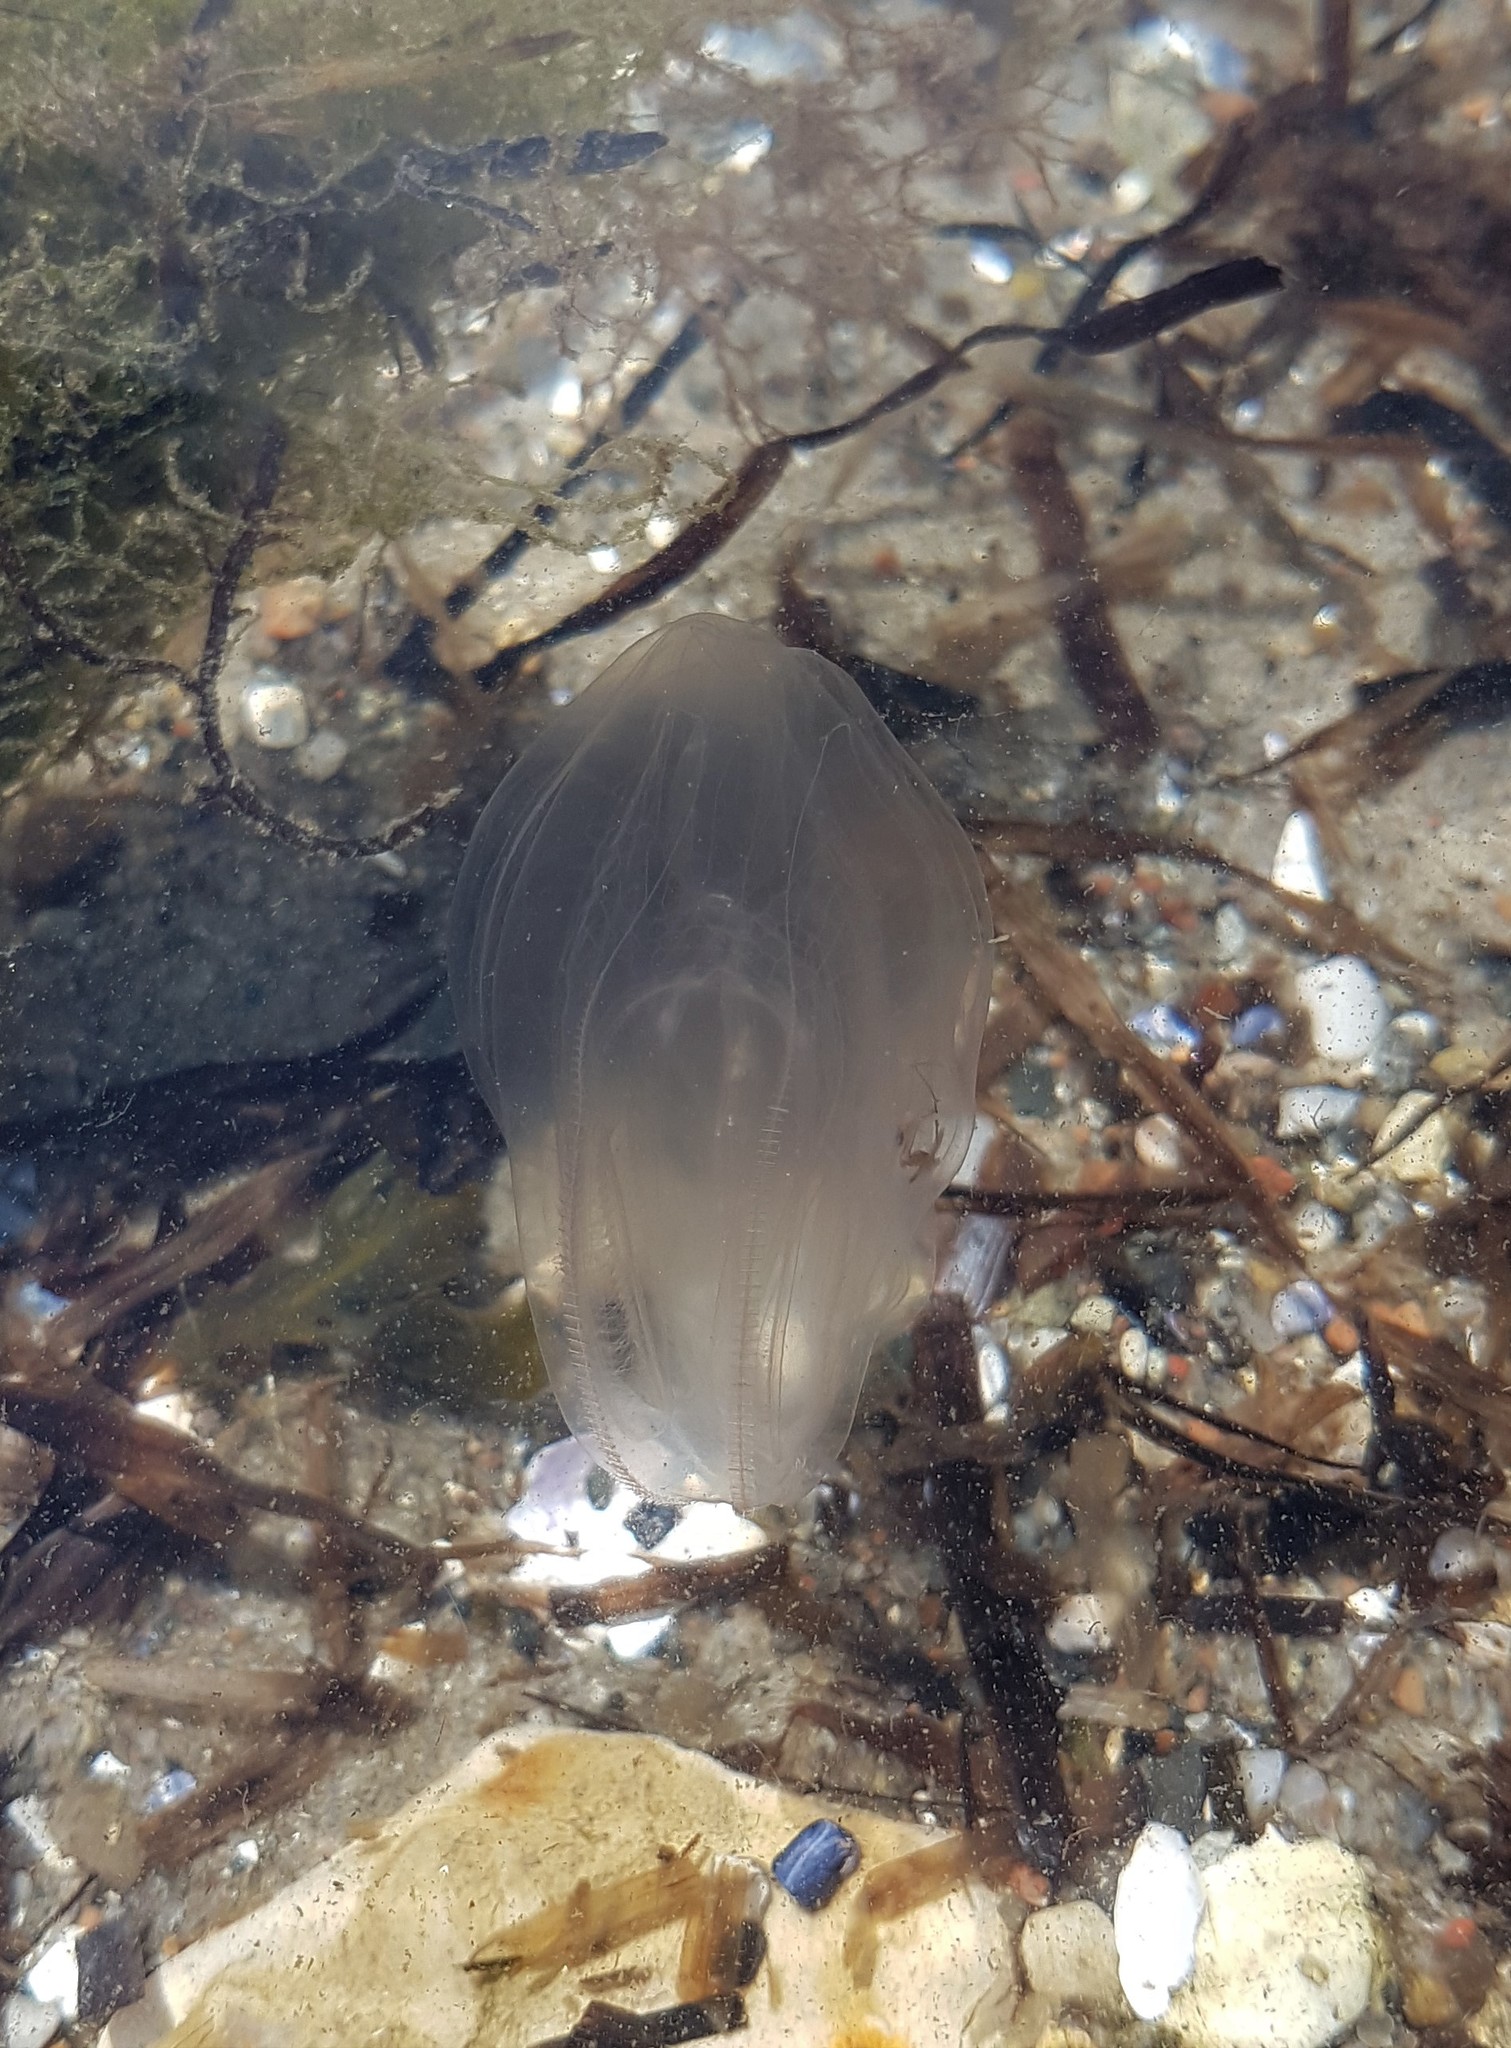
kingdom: Animalia
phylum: Ctenophora
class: Tentaculata
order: Lobata
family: Bolinopsidae
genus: Mnemiopsis
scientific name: Mnemiopsis leidyi
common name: American comb jelly
